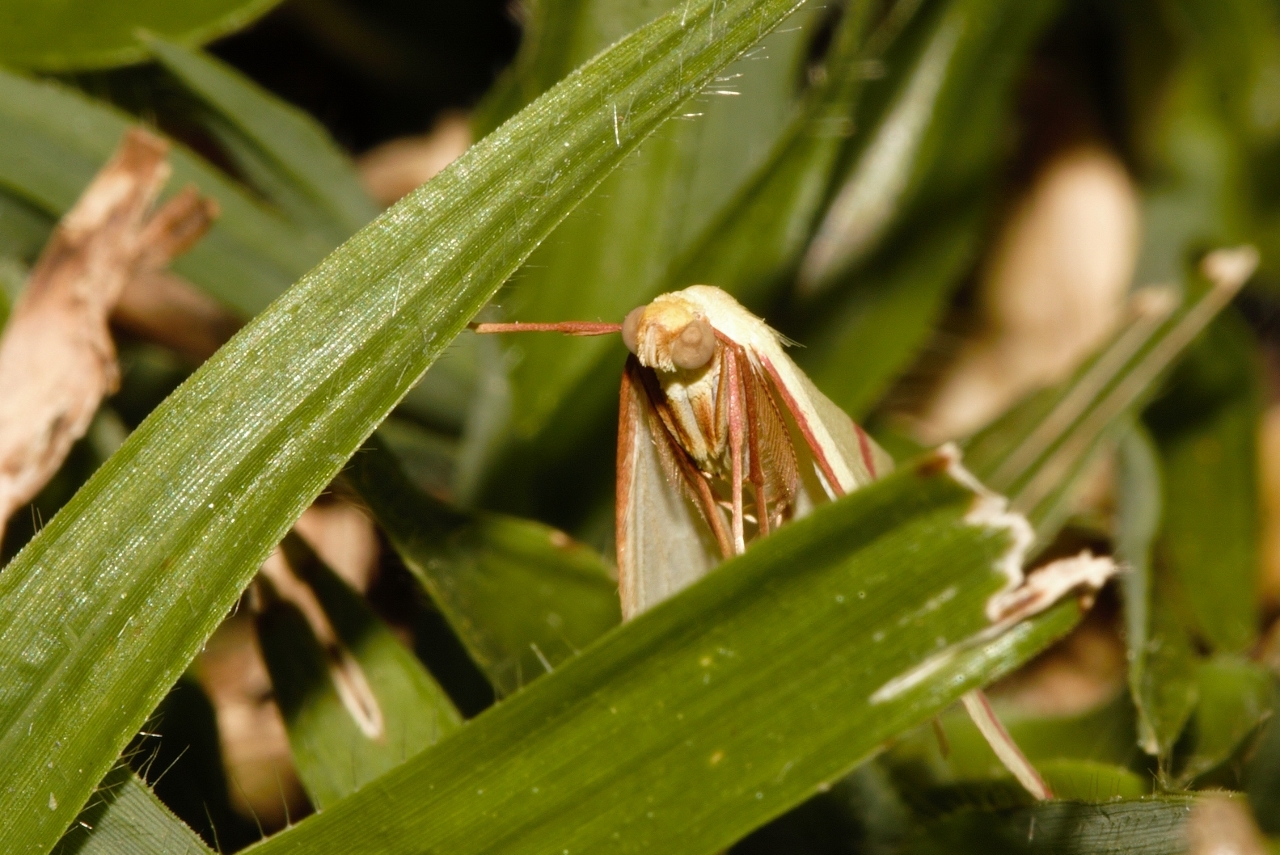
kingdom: Animalia
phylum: Arthropoda
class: Insecta
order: Lepidoptera
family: Geometridae
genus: Rhodometra
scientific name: Rhodometra sacraria
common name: Vestal
